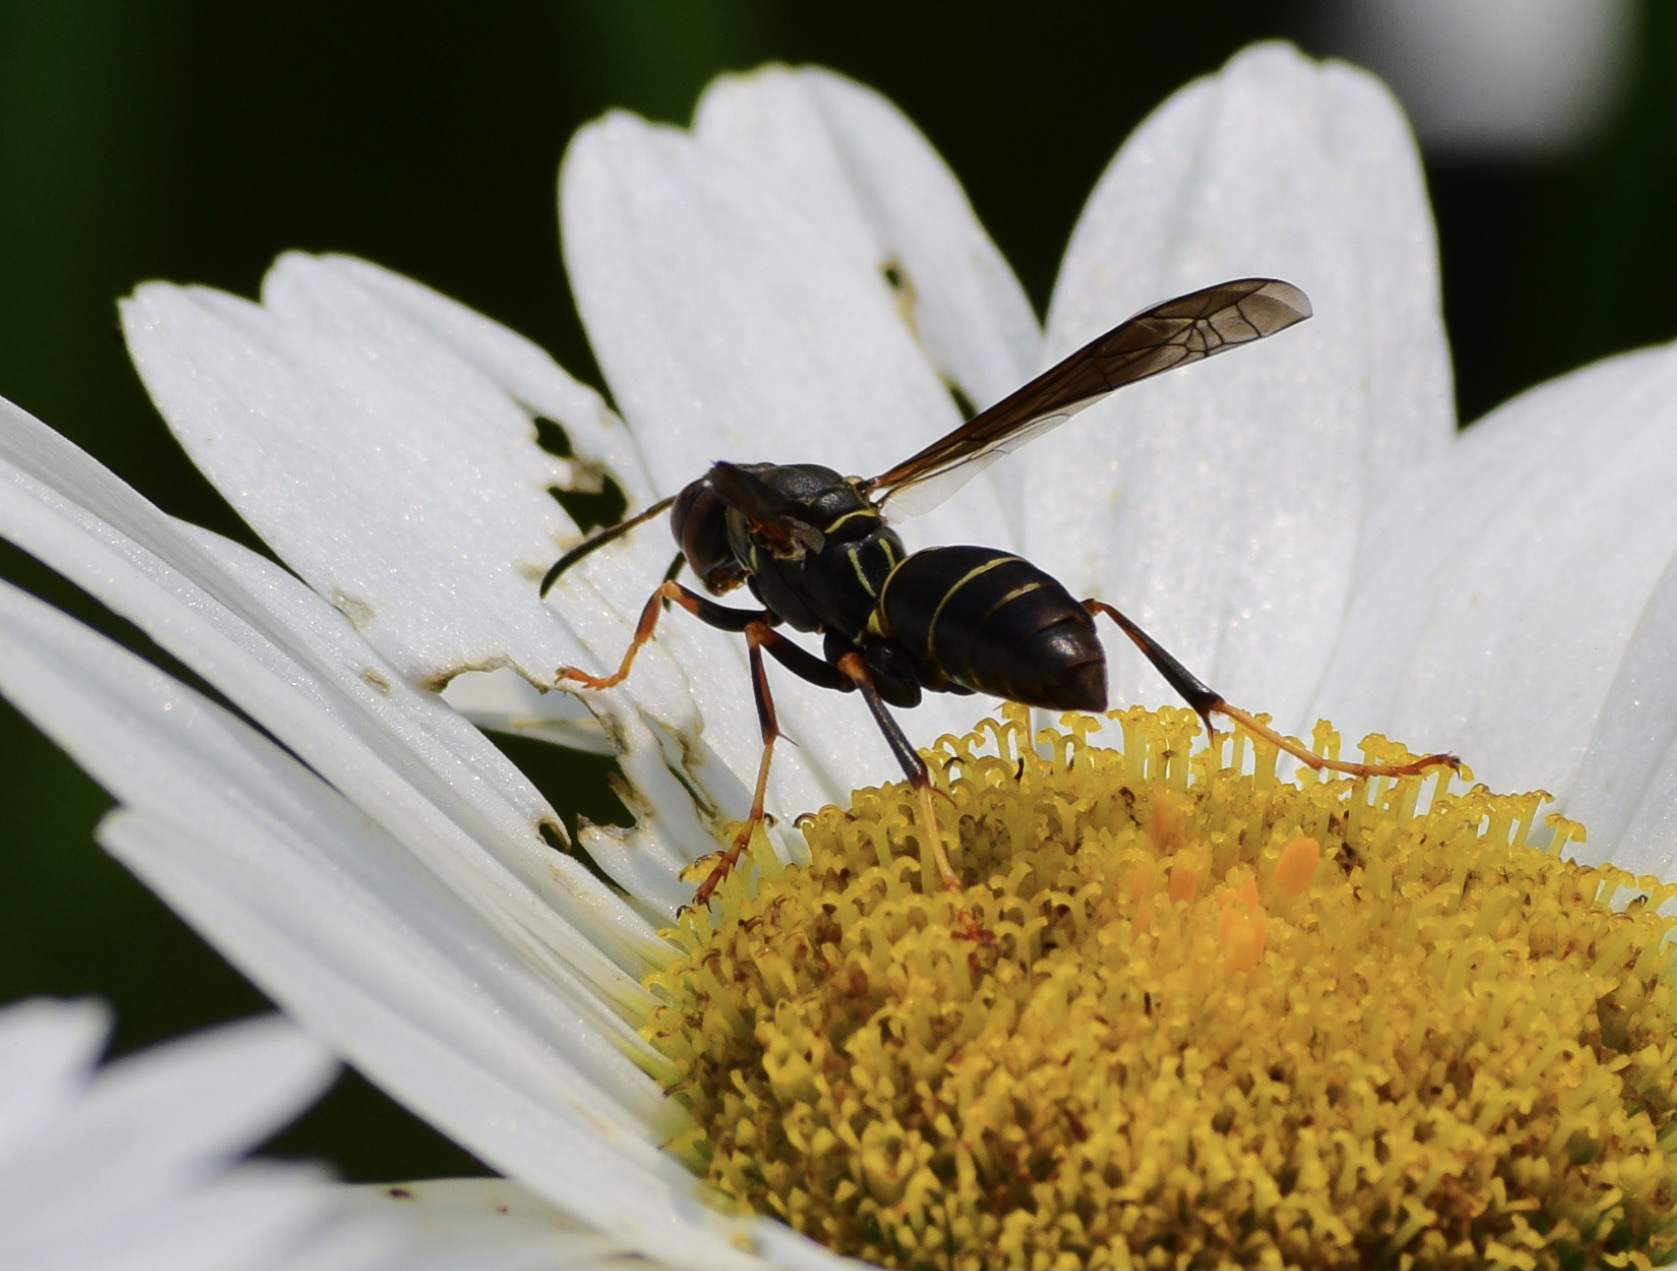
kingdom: Animalia
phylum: Arthropoda
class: Insecta
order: Hymenoptera
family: Eumenidae
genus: Polistes
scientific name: Polistes fuscatus
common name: Dark paper wasp
